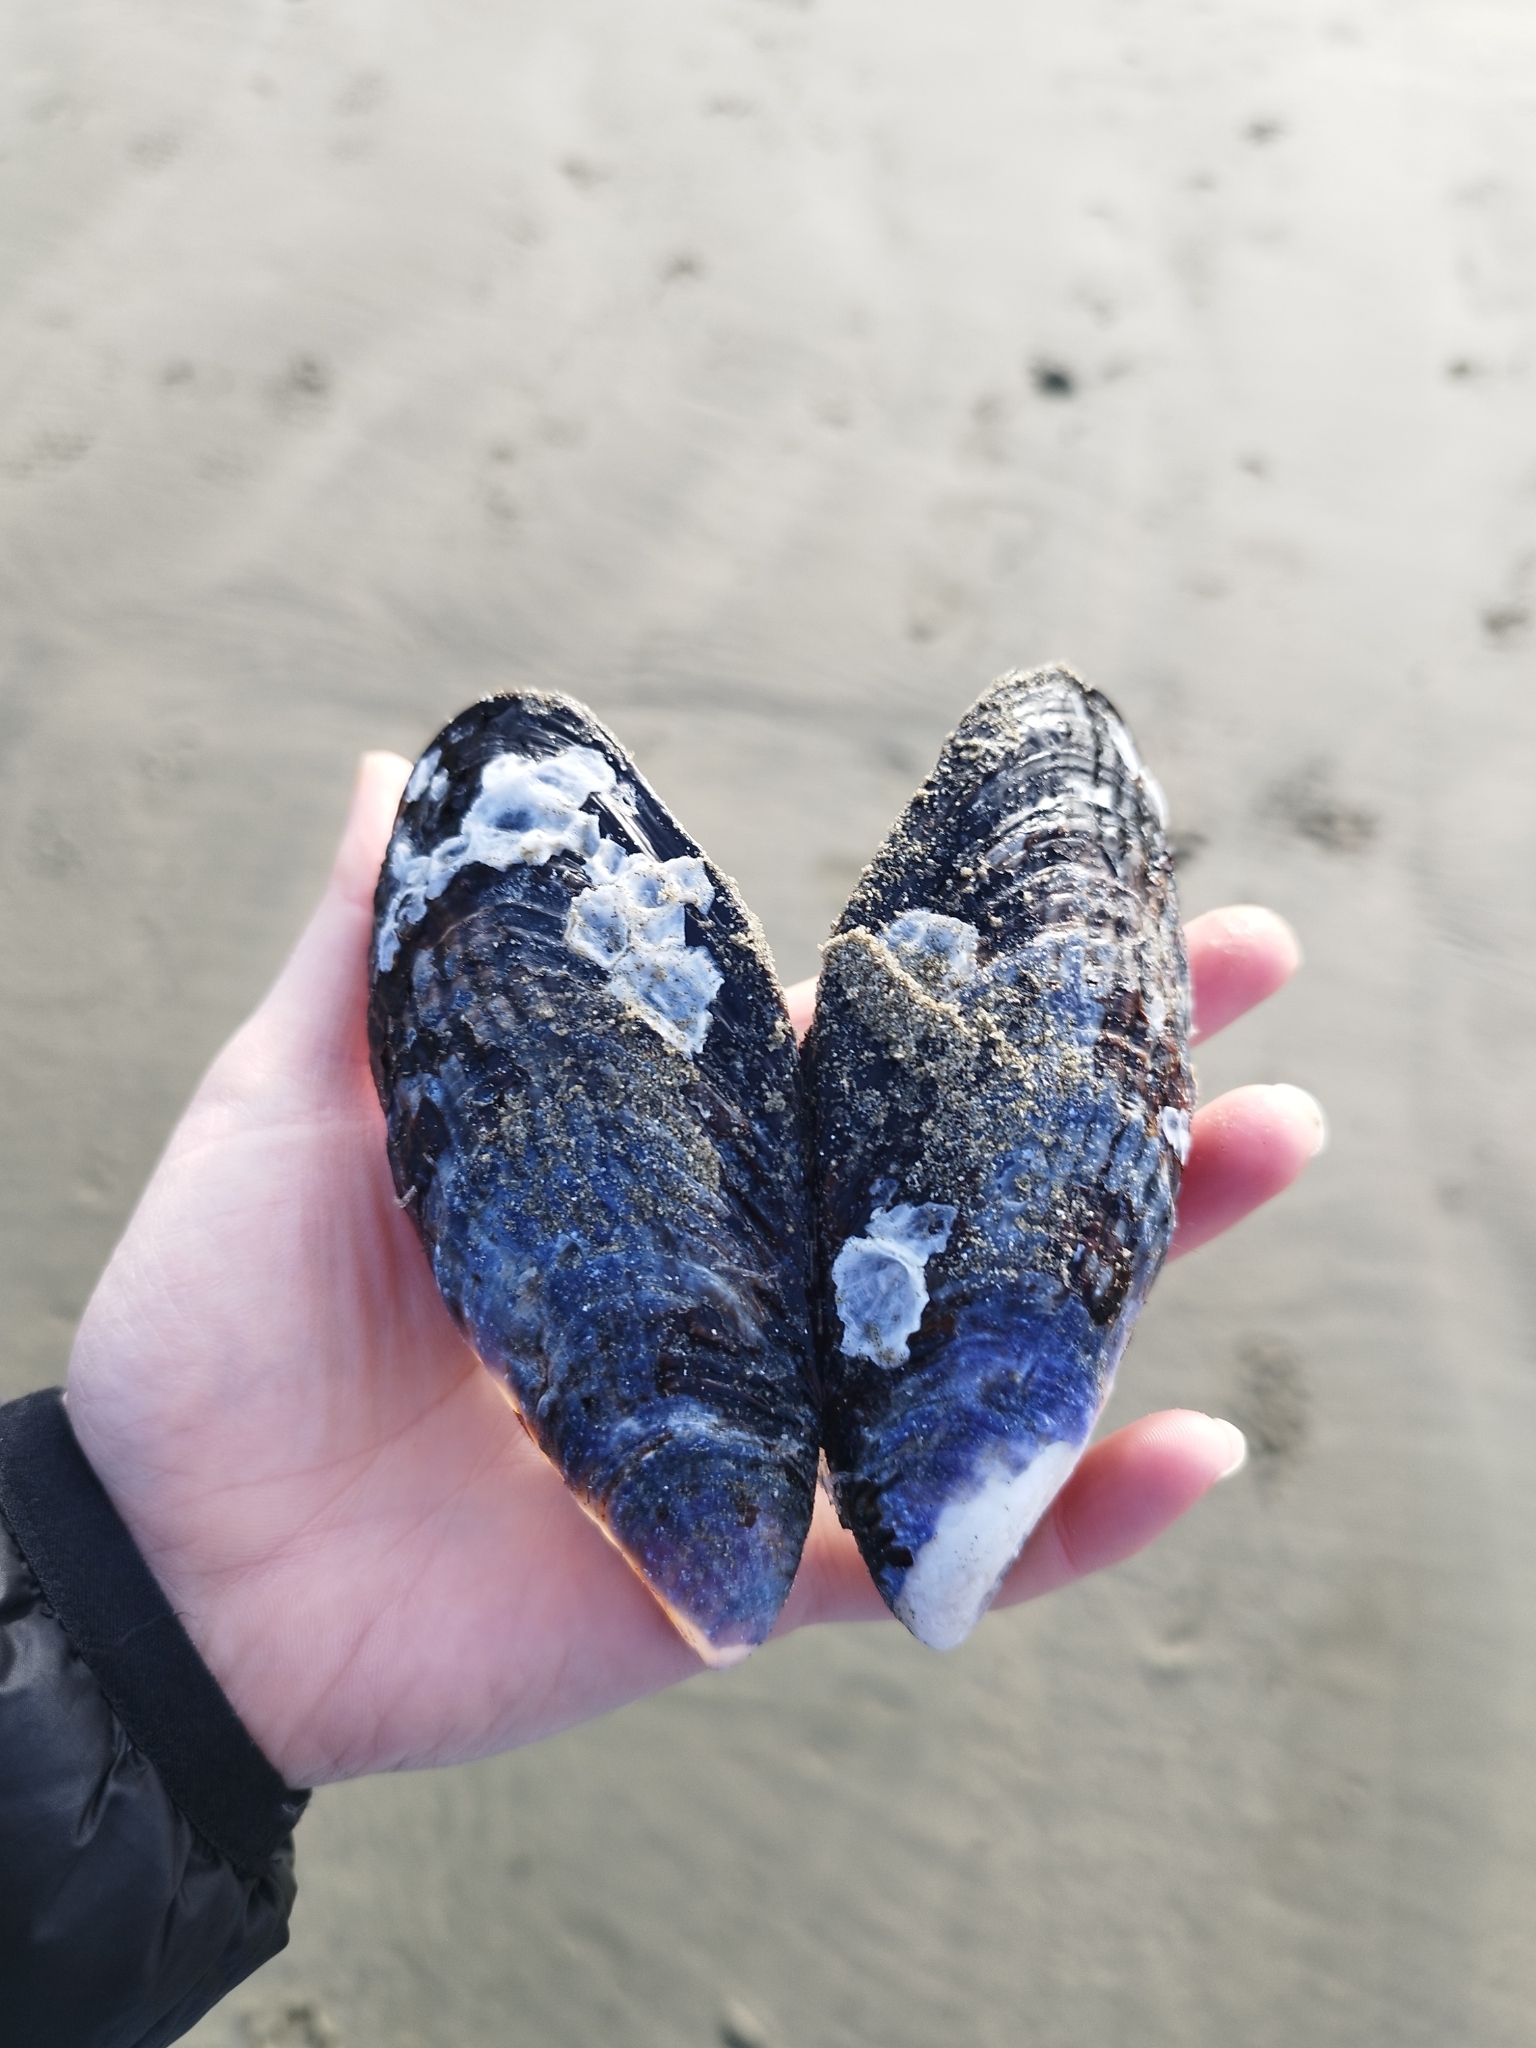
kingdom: Animalia
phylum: Mollusca
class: Bivalvia
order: Mytilida
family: Mytilidae
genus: Mytilus
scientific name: Mytilus californianus
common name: California mussel
